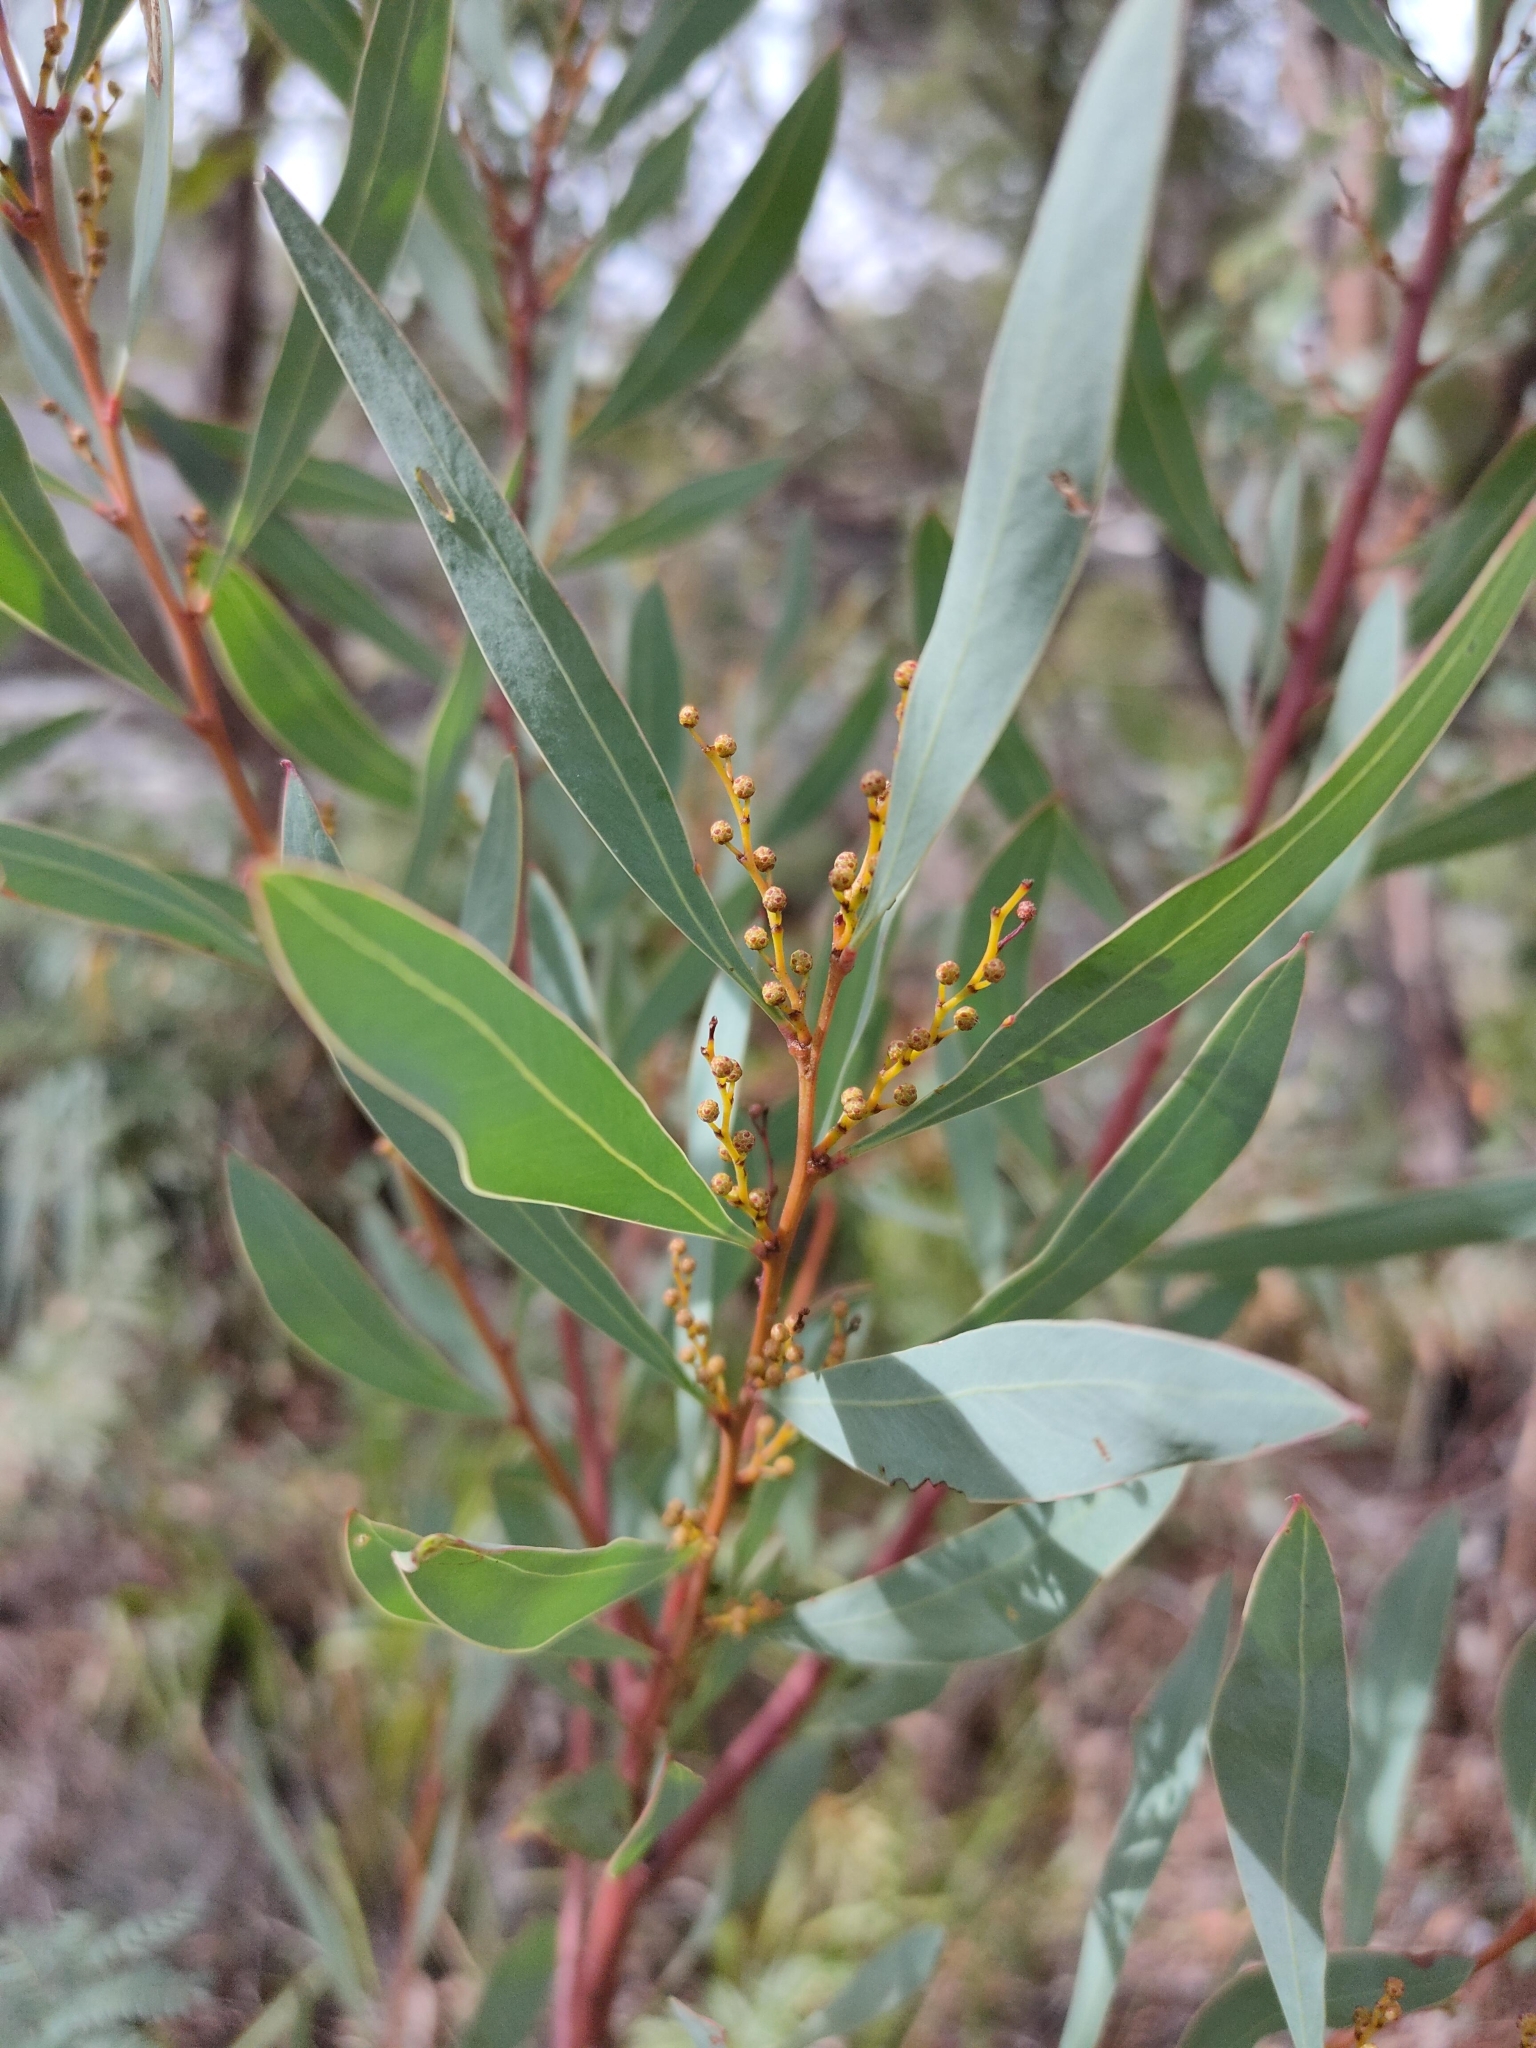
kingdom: Plantae
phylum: Tracheophyta
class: Magnoliopsida
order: Fabales
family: Fabaceae
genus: Acacia
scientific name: Acacia rubida
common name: Red leaf wattle
